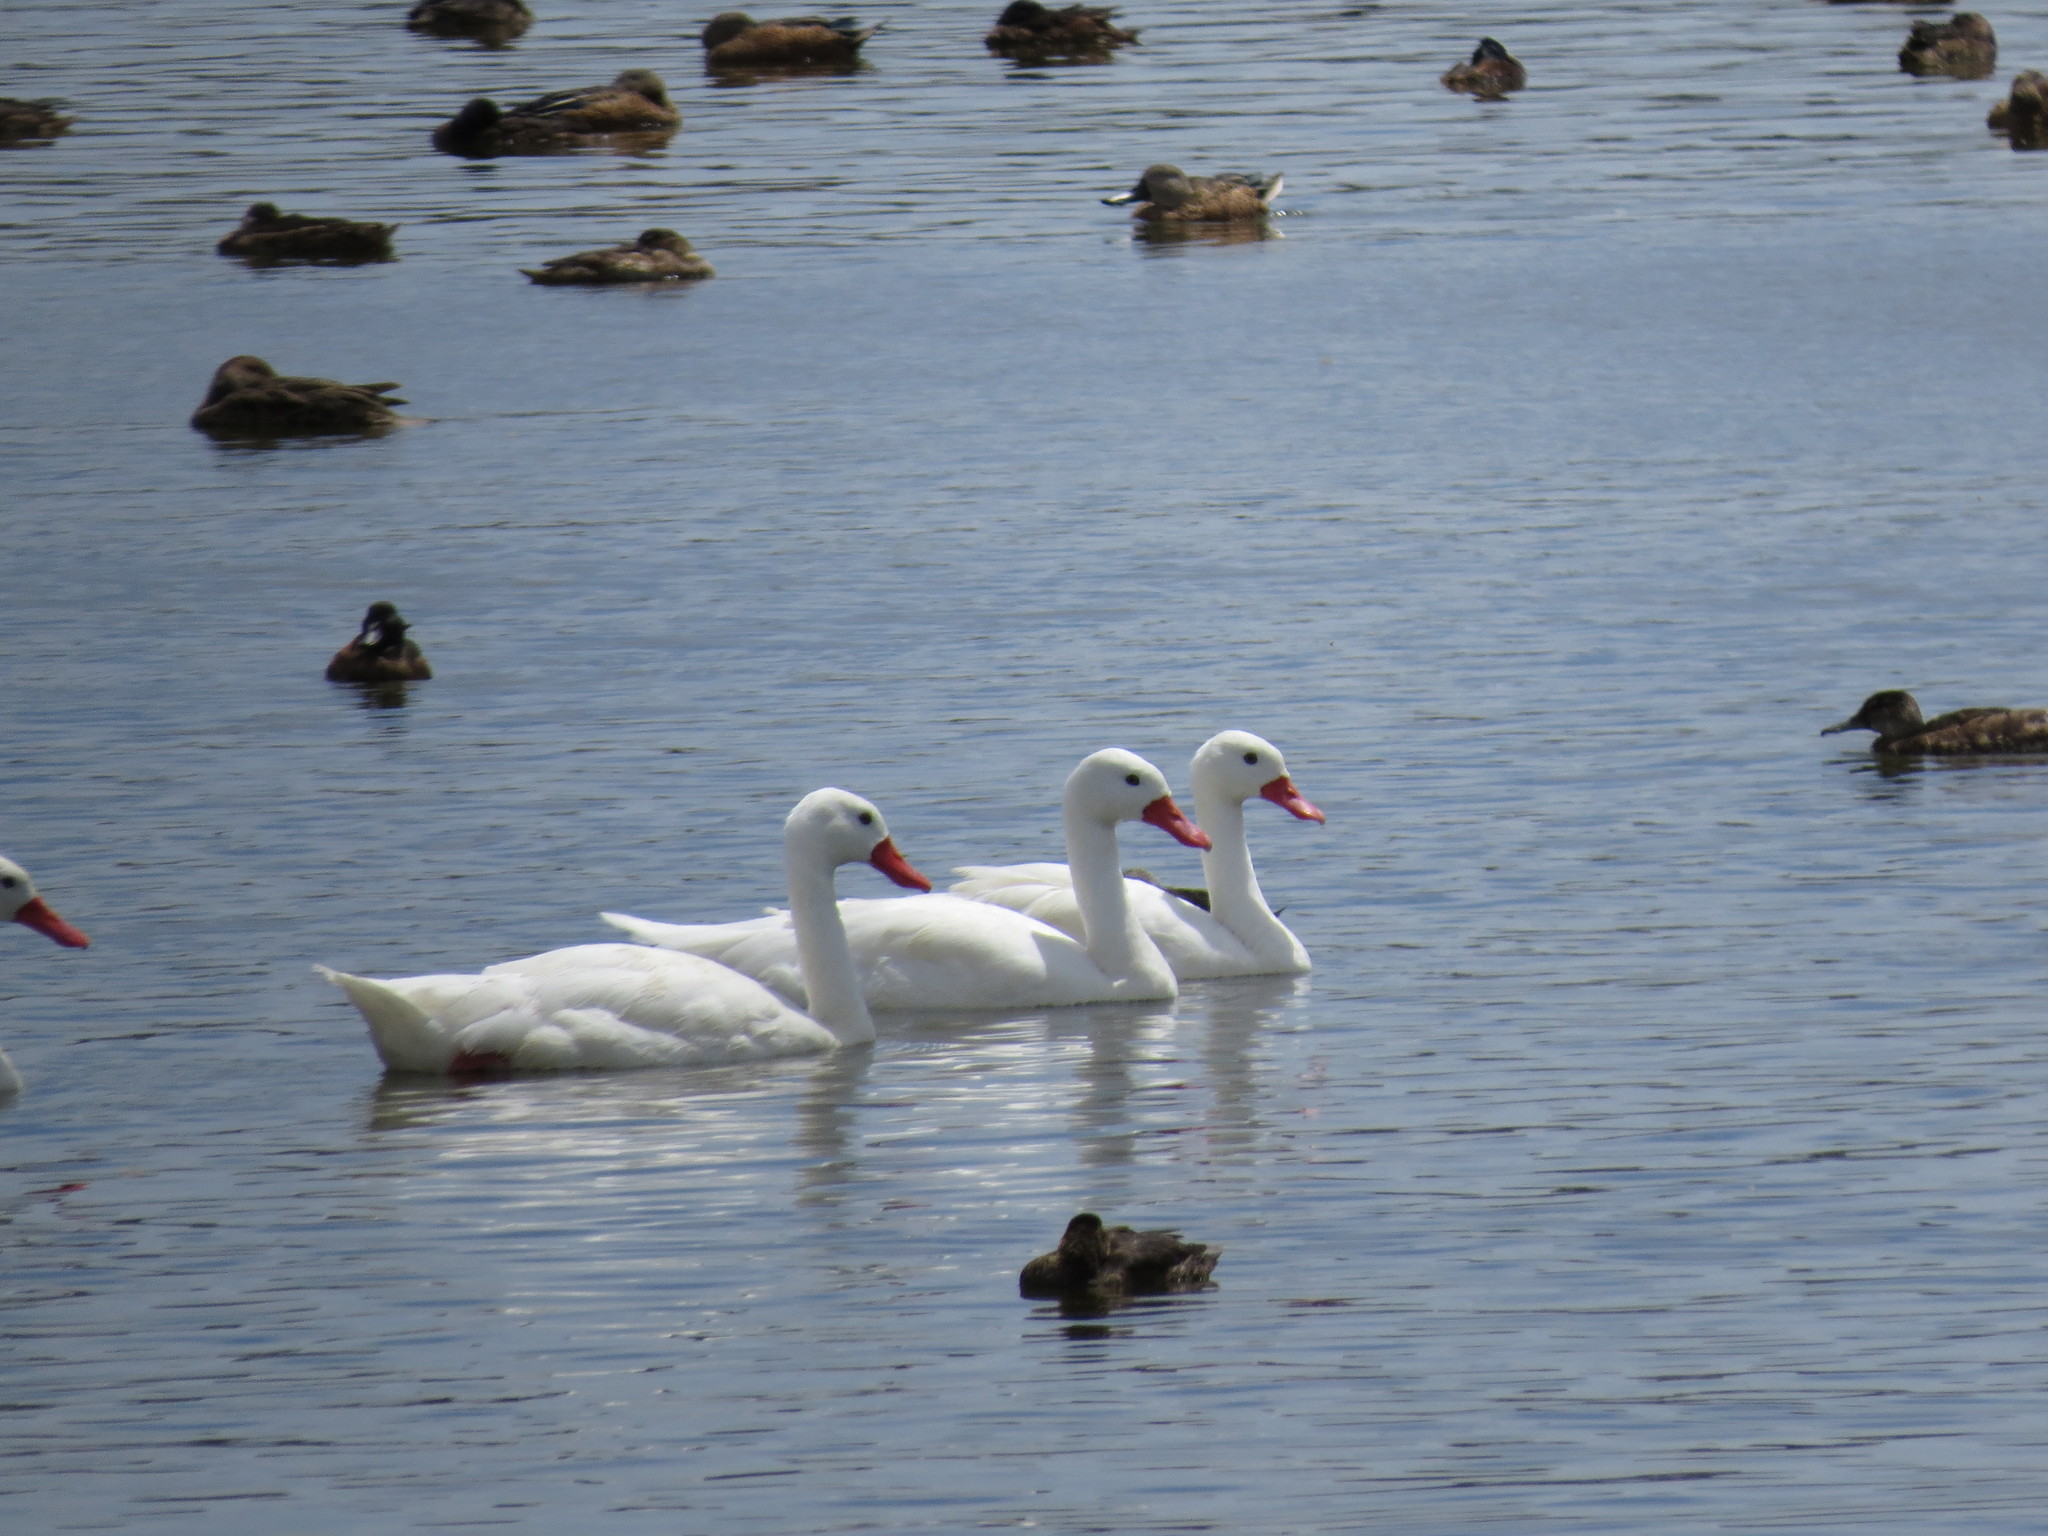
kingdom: Animalia
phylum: Chordata
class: Aves
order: Anseriformes
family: Anatidae
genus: Coscoroba
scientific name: Coscoroba coscoroba
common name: Coscoroba swan
